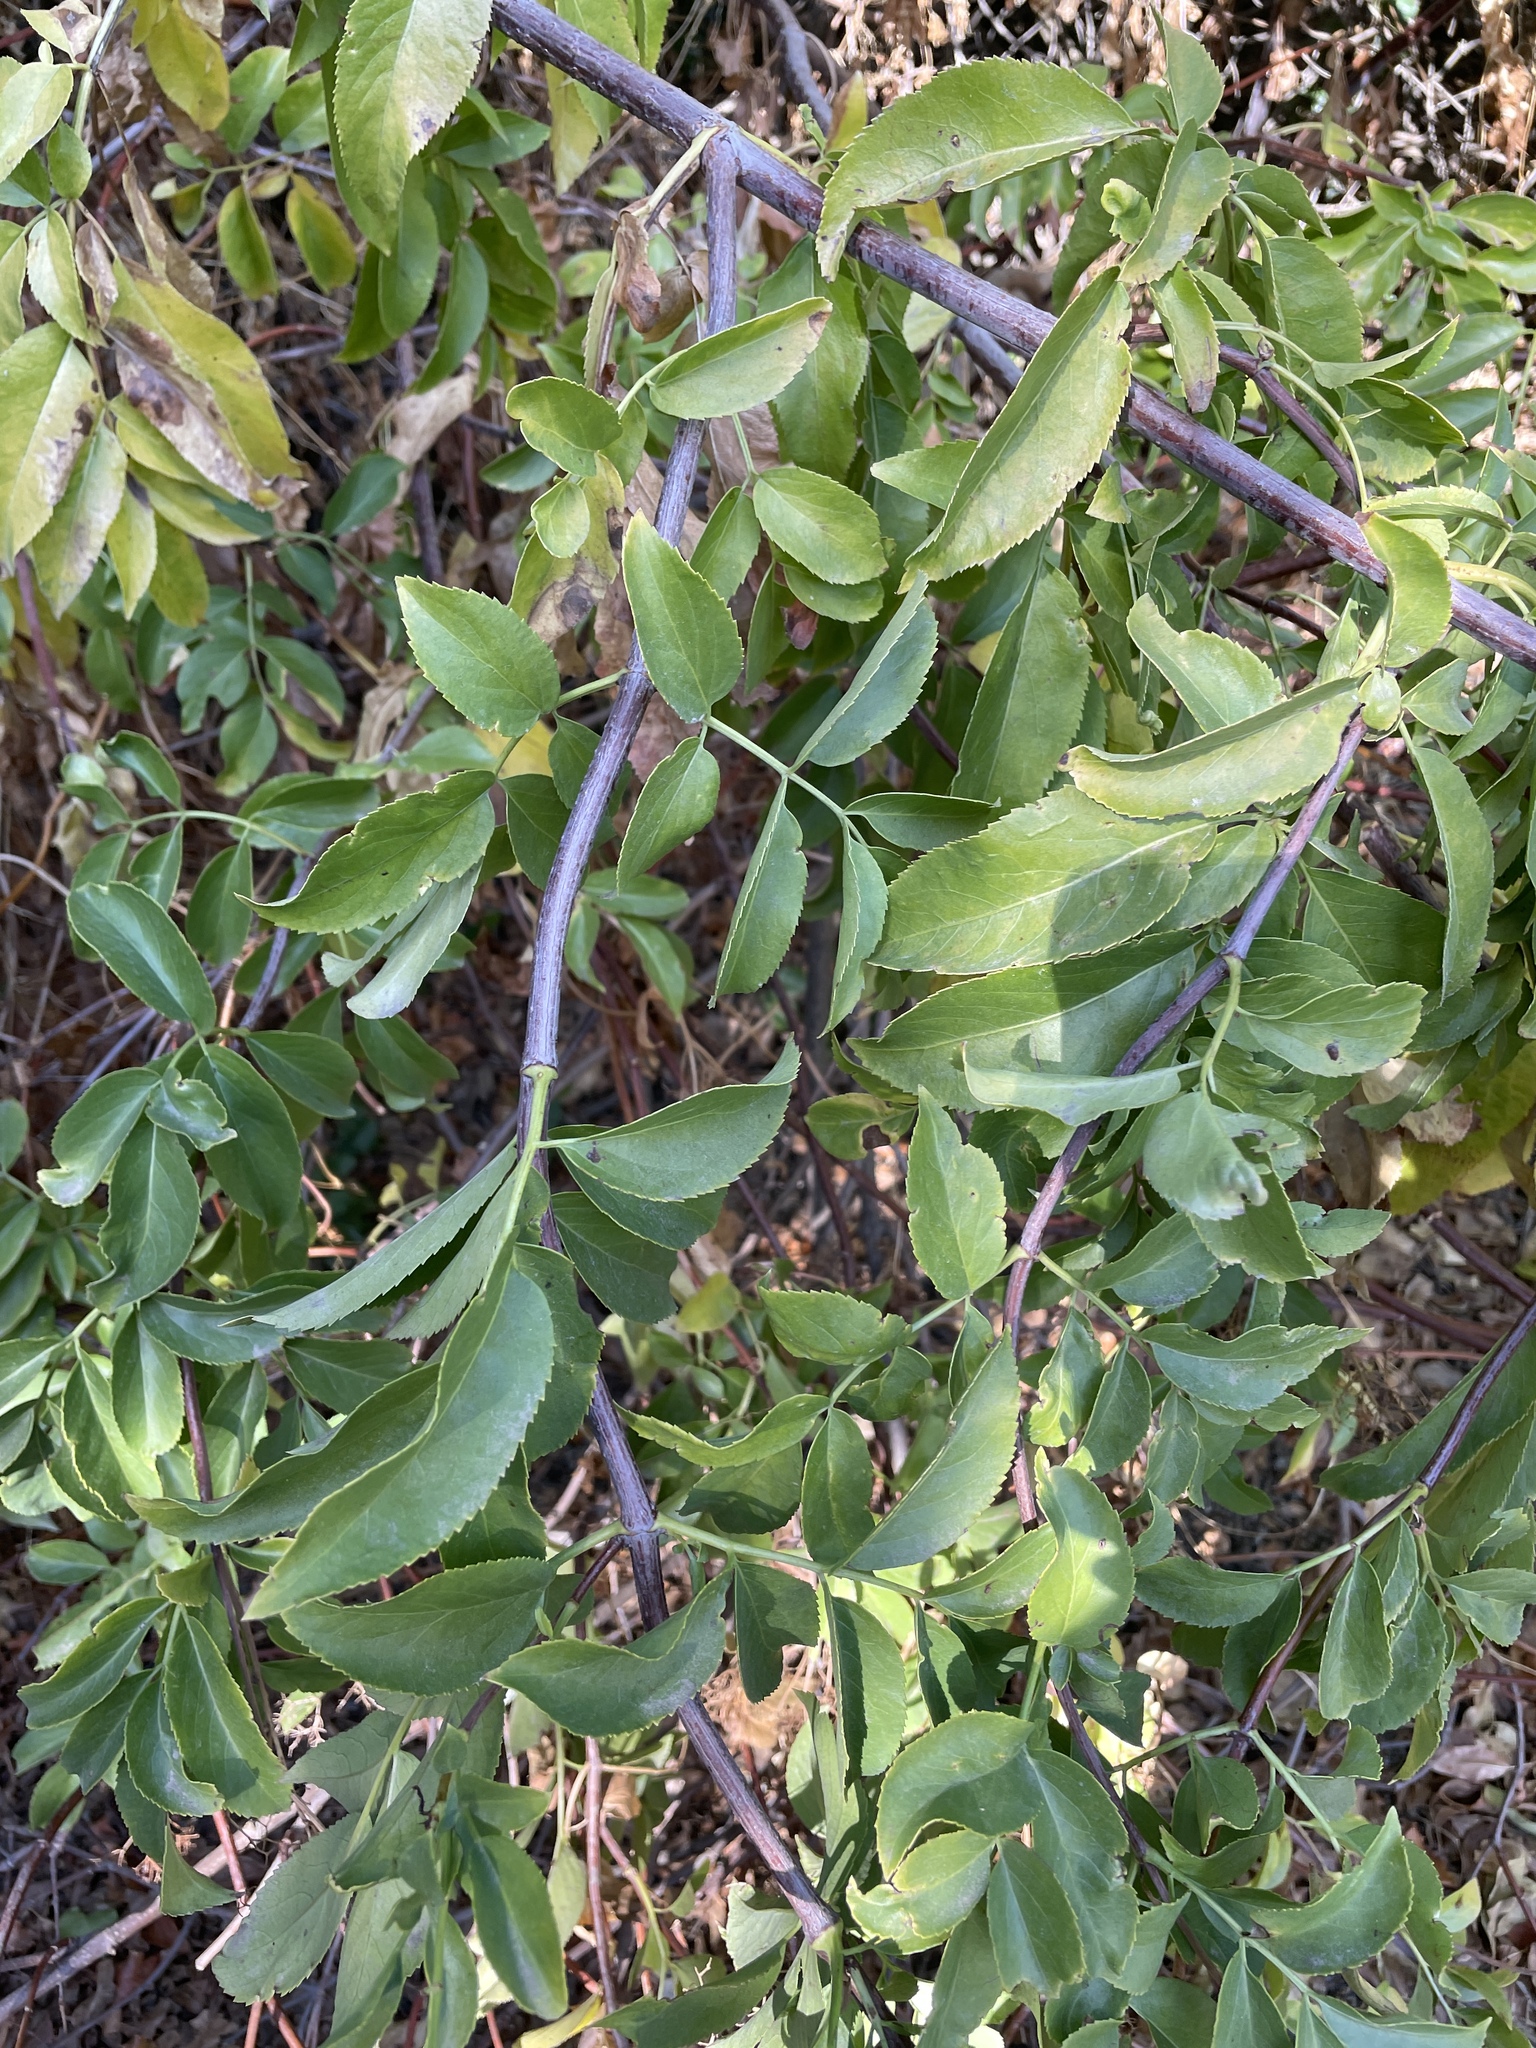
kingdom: Plantae
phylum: Tracheophyta
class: Magnoliopsida
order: Dipsacales
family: Viburnaceae
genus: Sambucus
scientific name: Sambucus cerulea
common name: Blue elder
